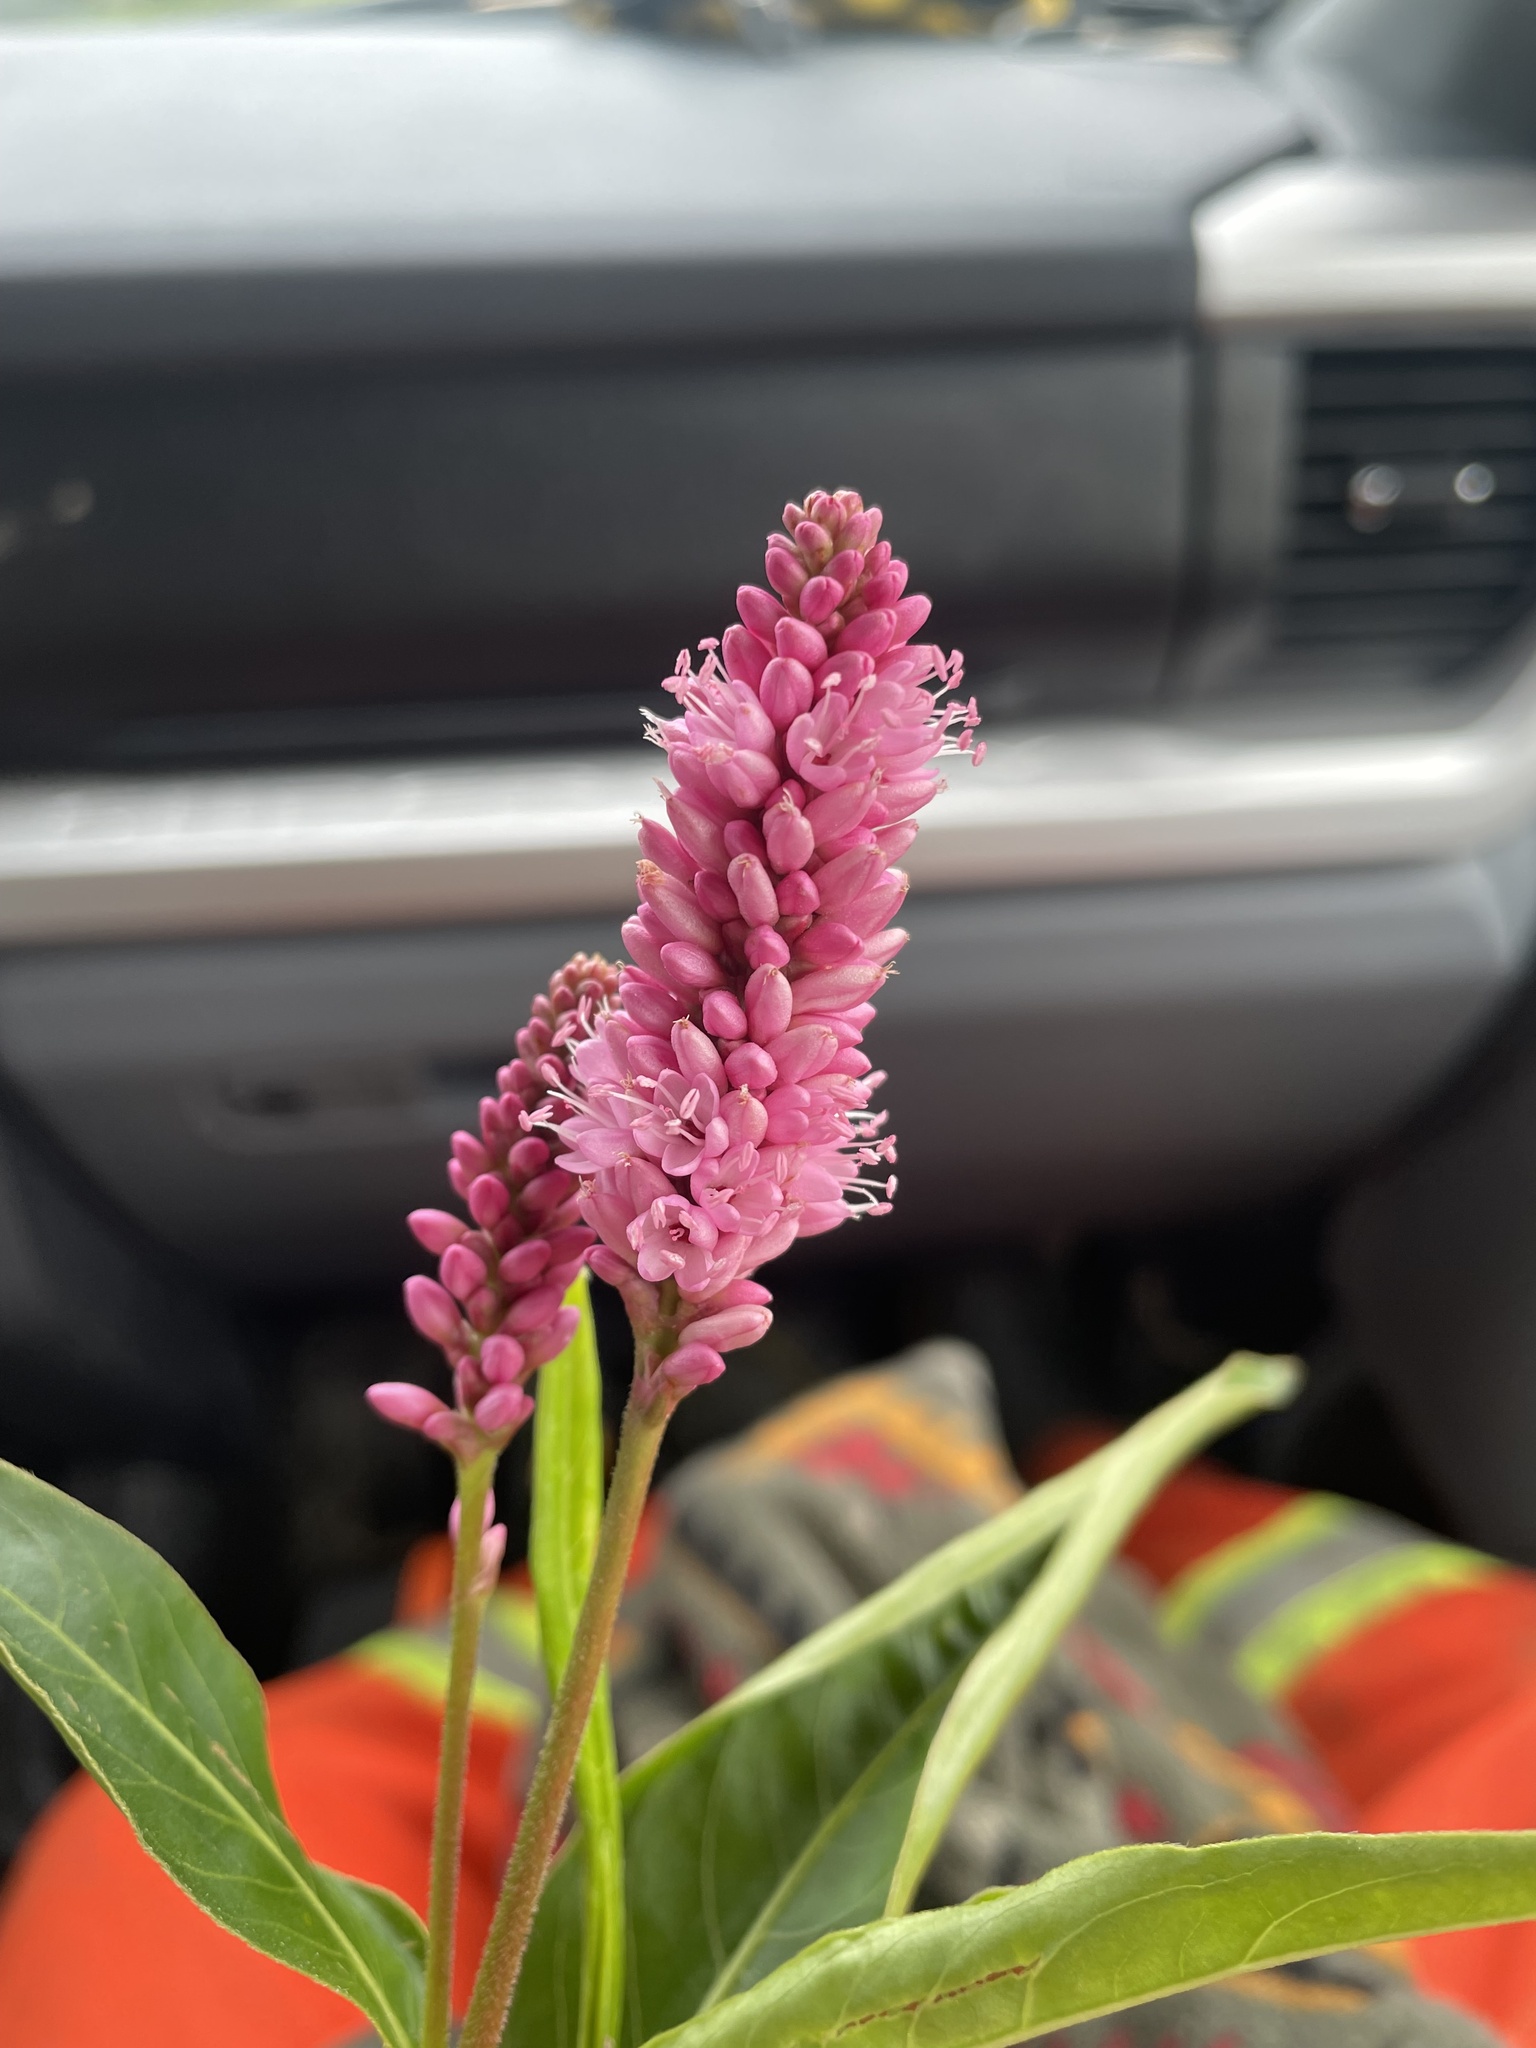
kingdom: Plantae
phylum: Tracheophyta
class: Magnoliopsida
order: Caryophyllales
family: Polygonaceae
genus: Persicaria
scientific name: Persicaria amphibia
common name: Amphibious bistort
